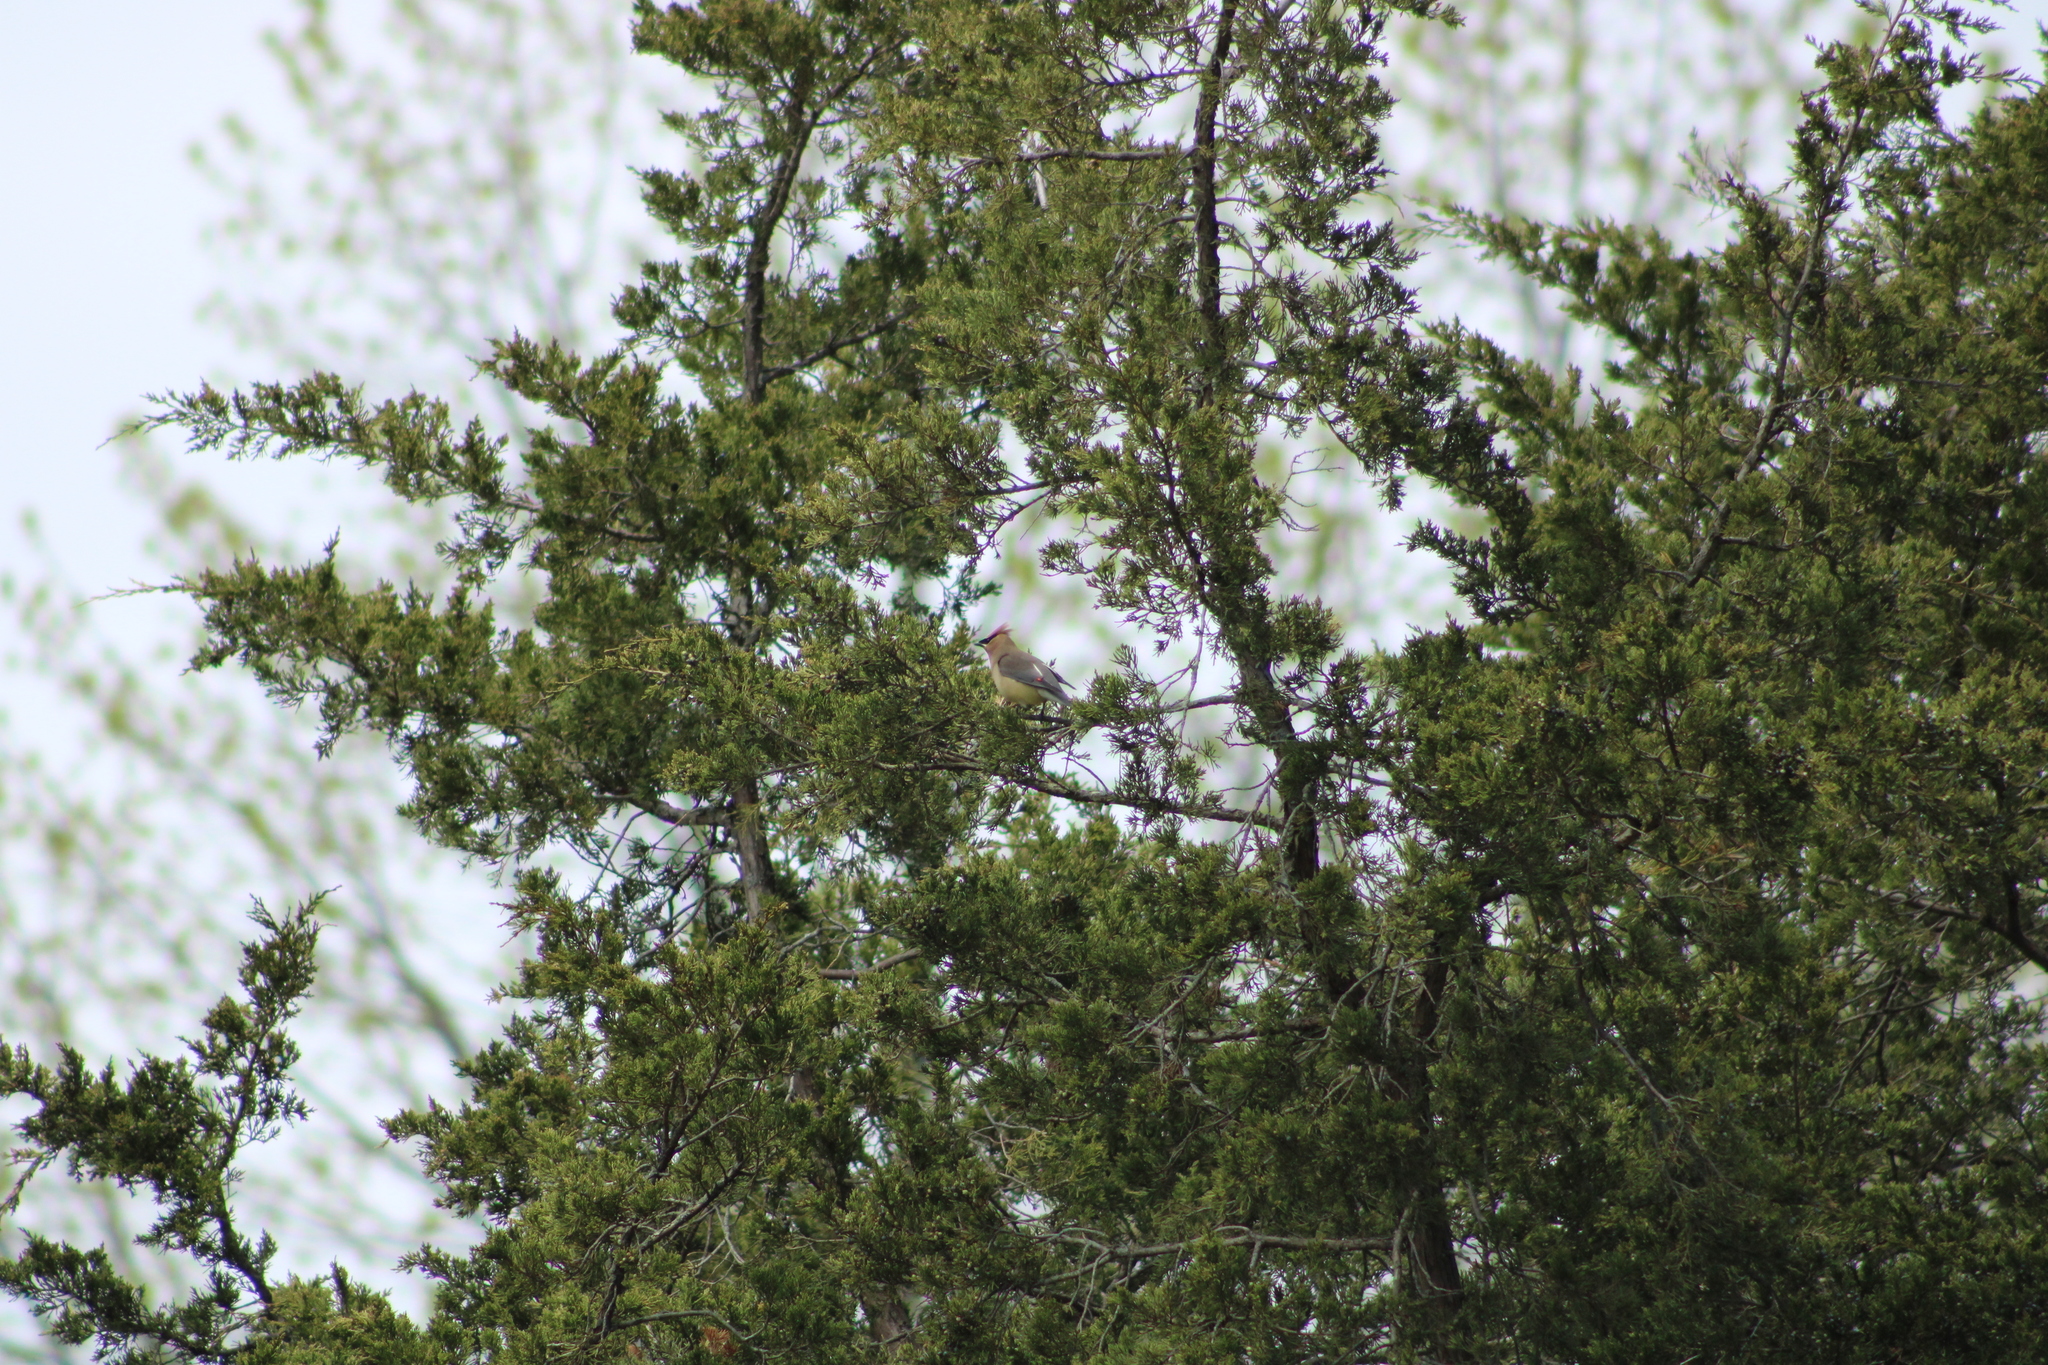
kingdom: Animalia
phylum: Chordata
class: Aves
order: Passeriformes
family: Bombycillidae
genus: Bombycilla
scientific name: Bombycilla cedrorum
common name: Cedar waxwing
